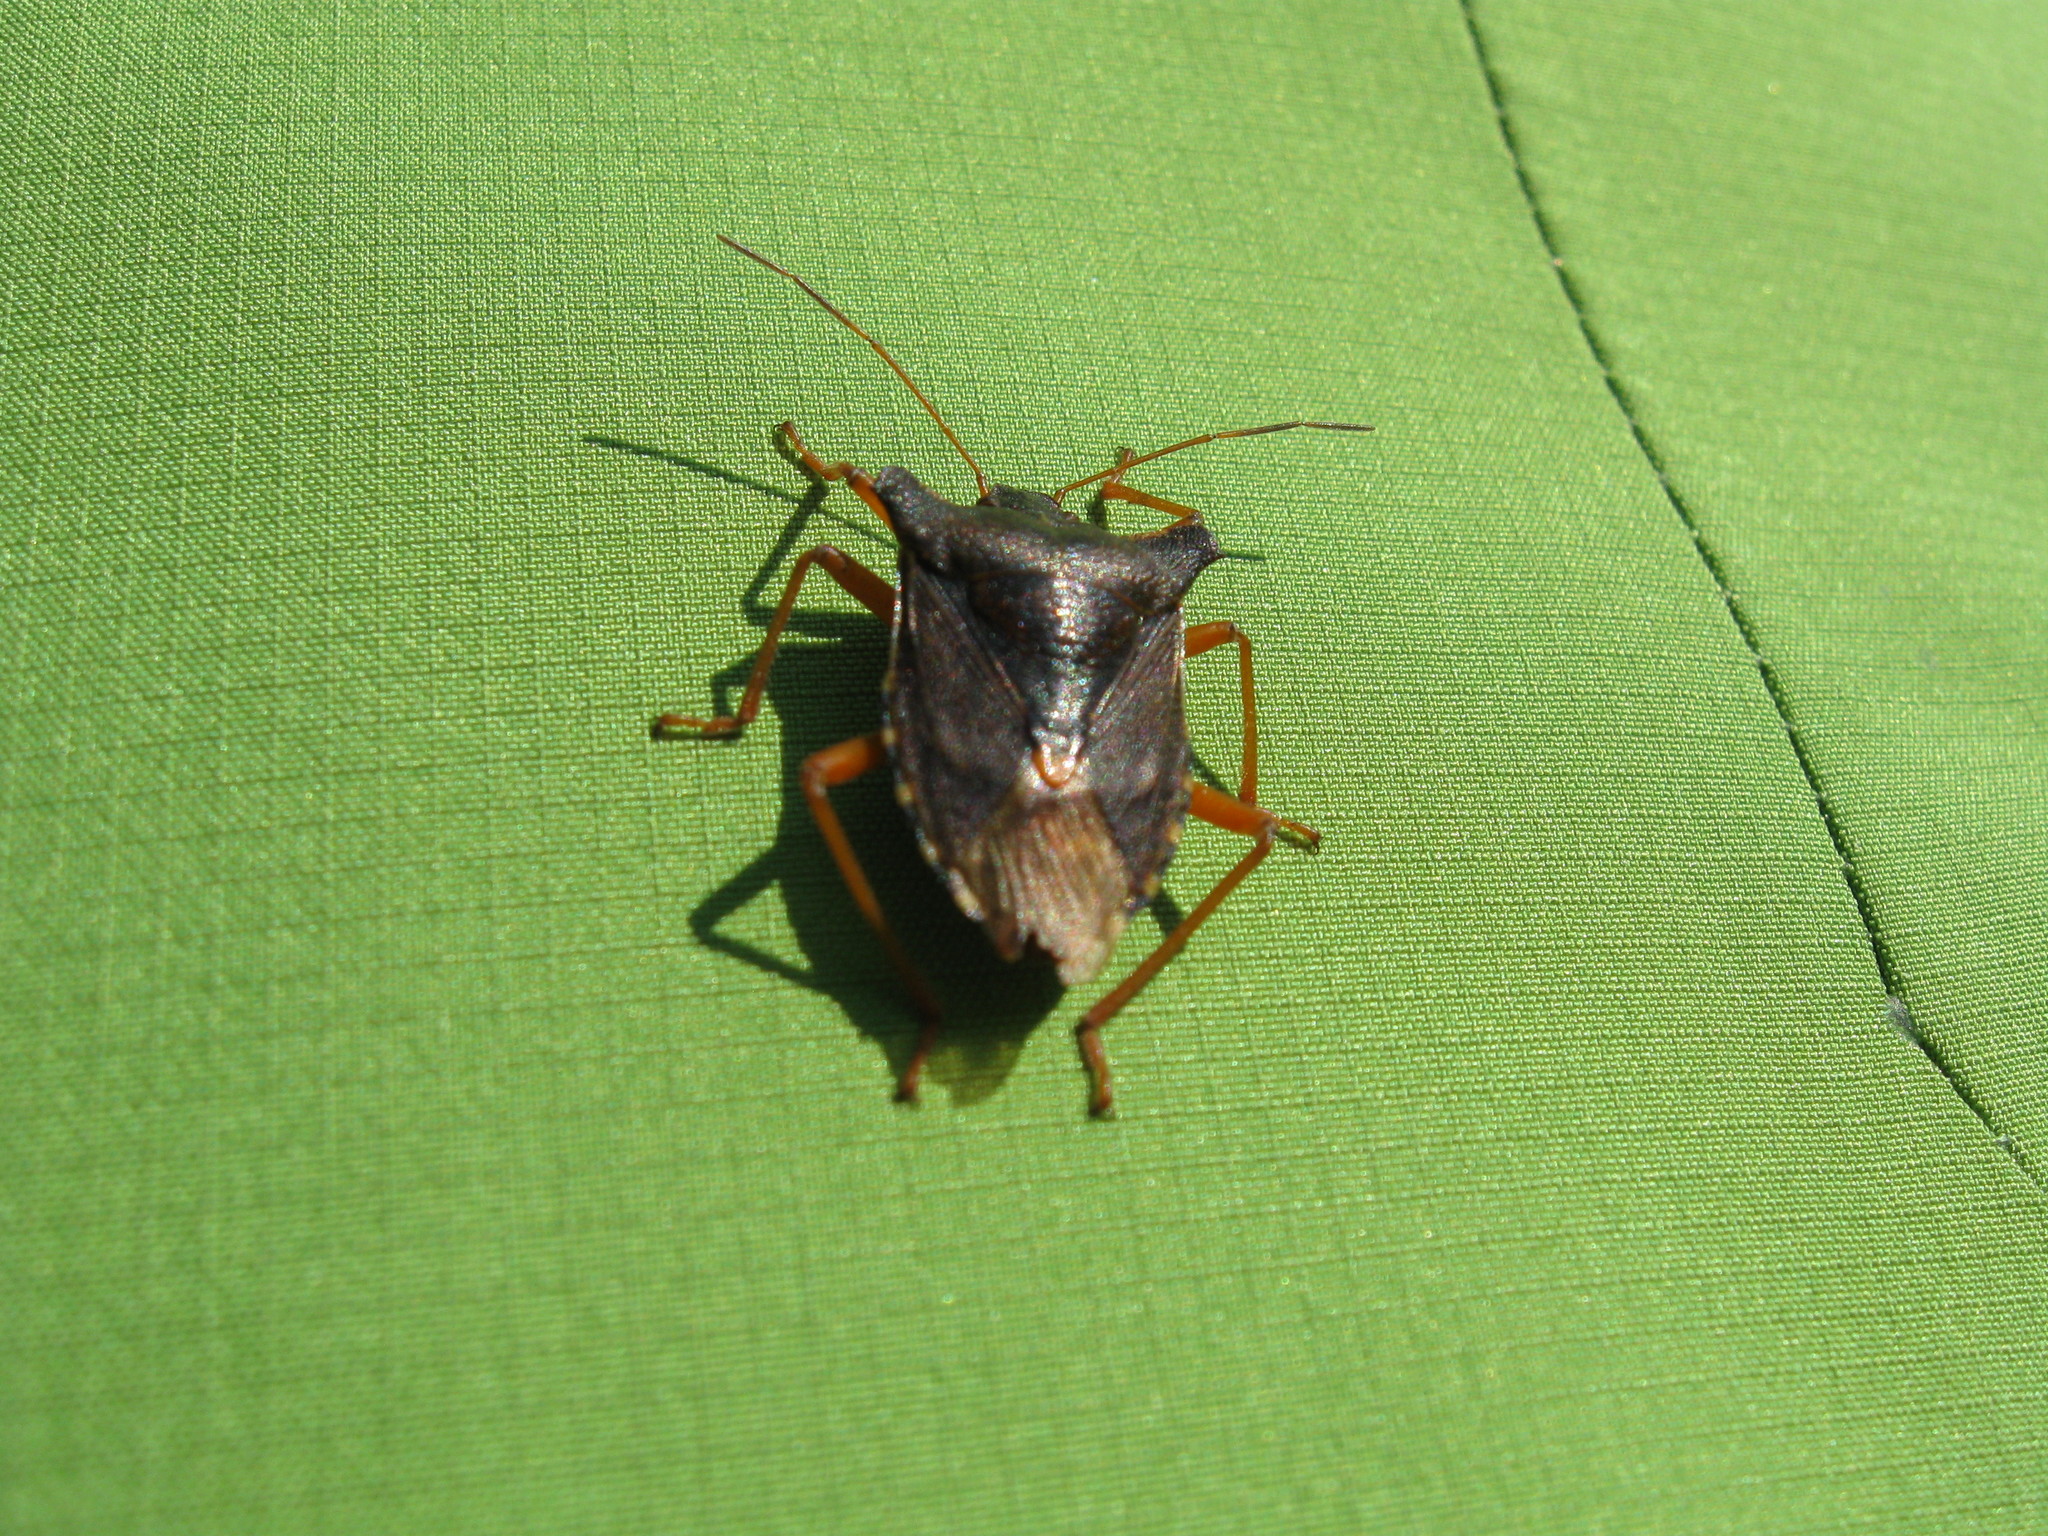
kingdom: Animalia
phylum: Arthropoda
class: Insecta
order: Hemiptera
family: Pentatomidae
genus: Pentatoma
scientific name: Pentatoma rufipes
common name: Forest bug
